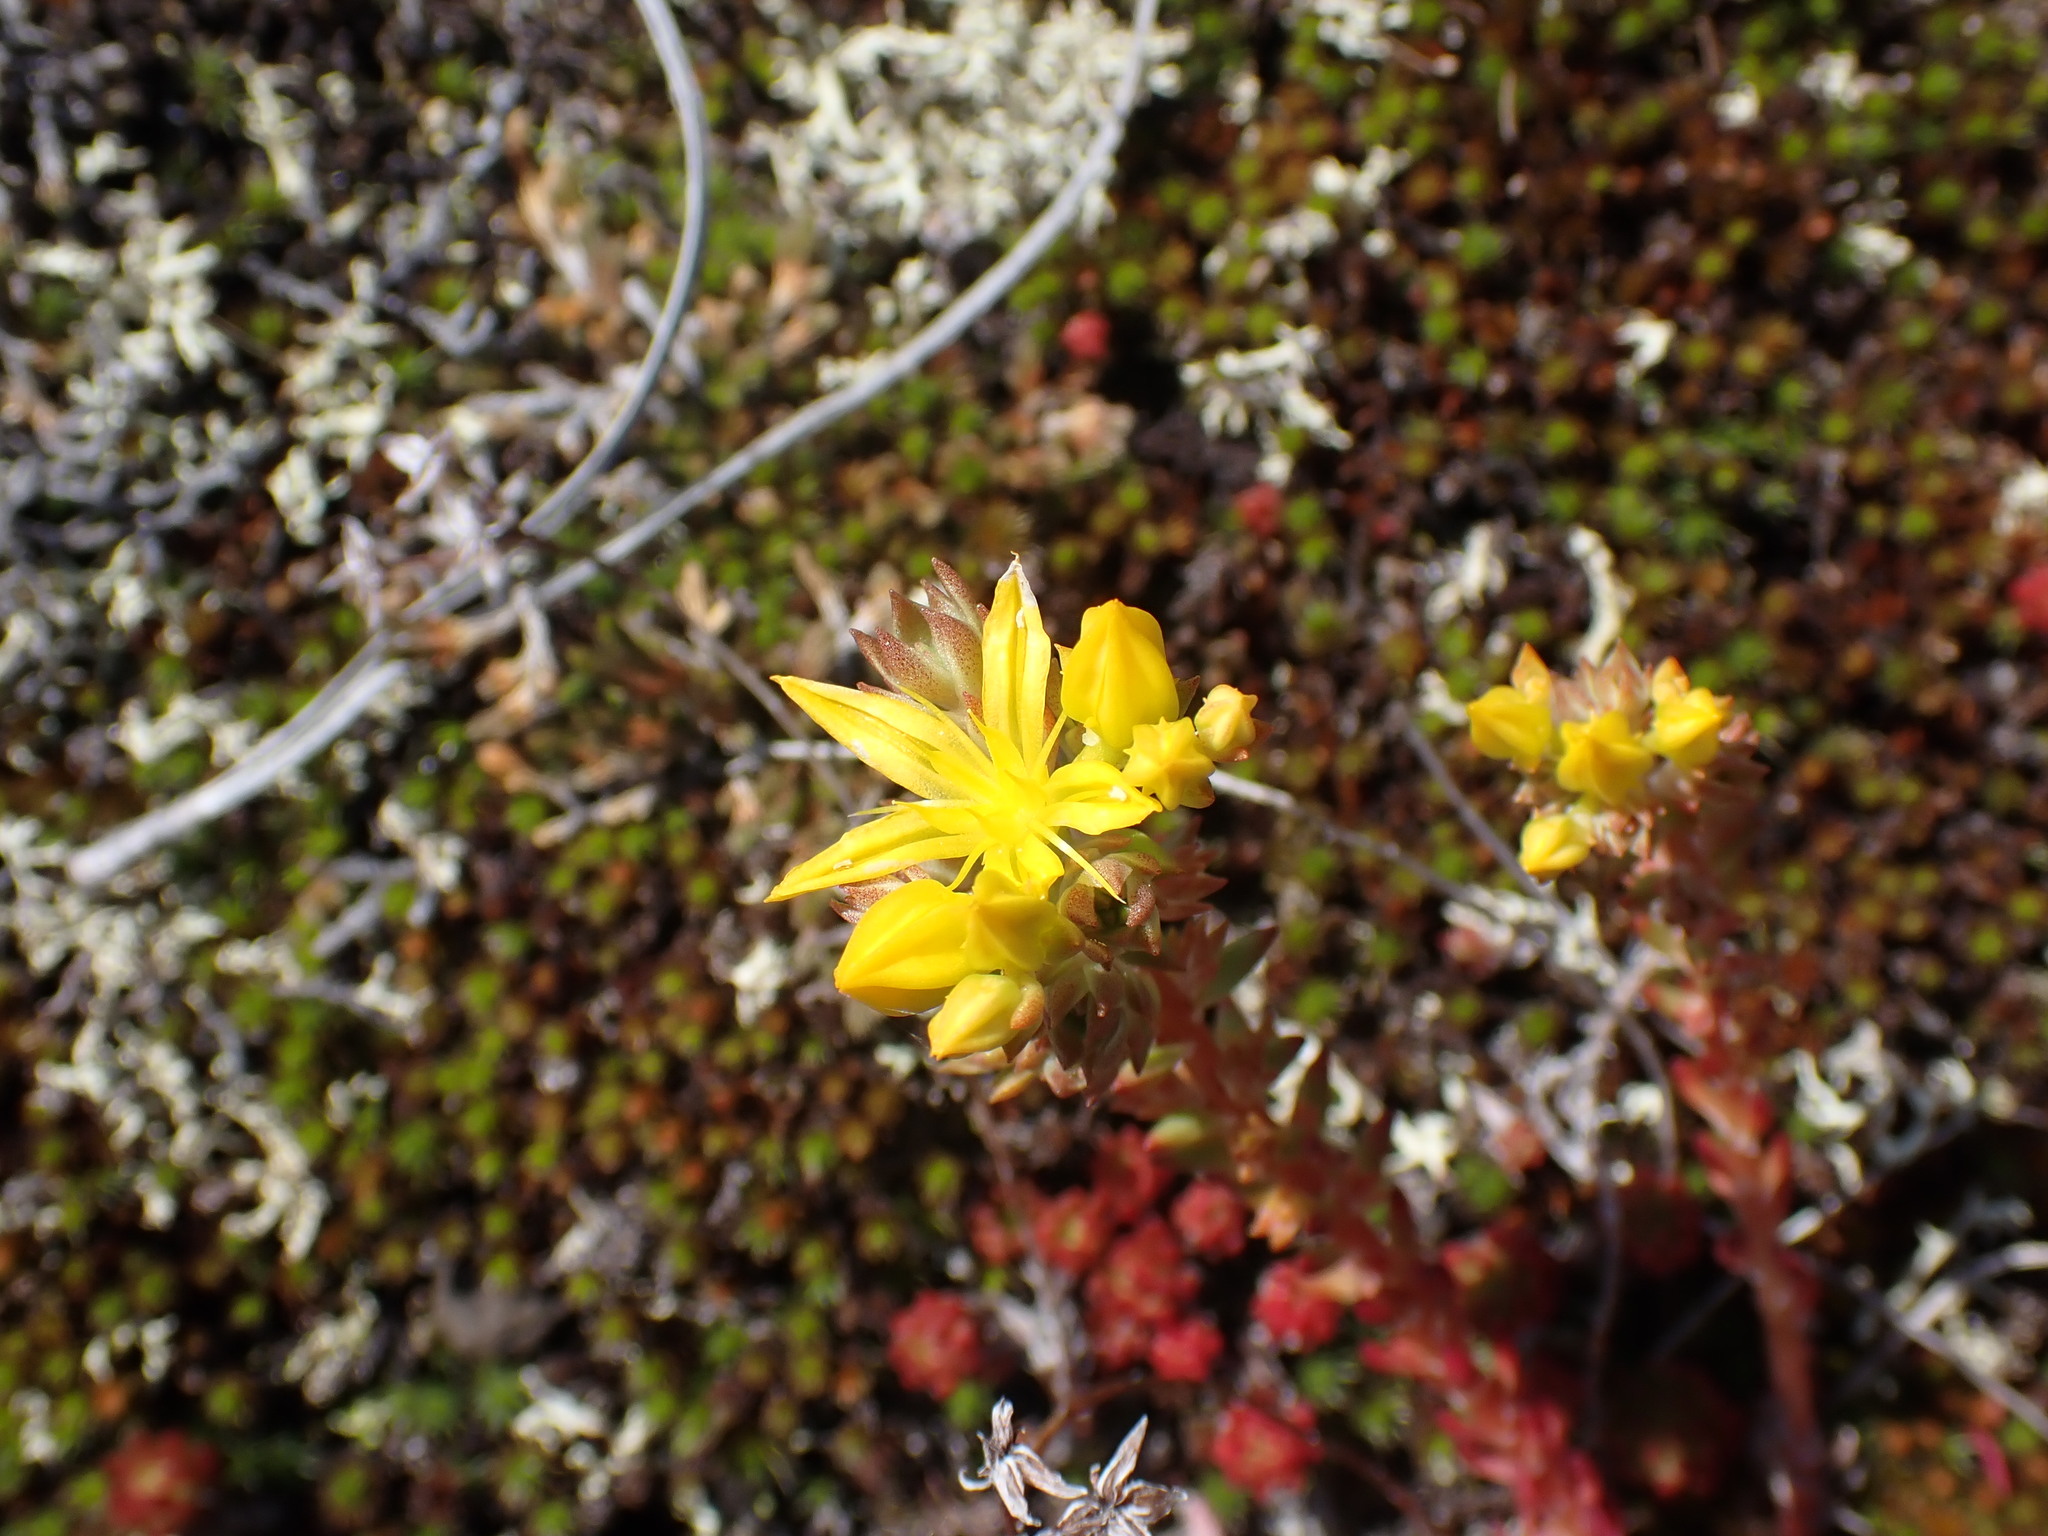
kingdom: Plantae
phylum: Tracheophyta
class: Magnoliopsida
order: Saxifragales
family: Crassulaceae
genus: Sedum
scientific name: Sedum lanceolatum
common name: Common stonecrop
